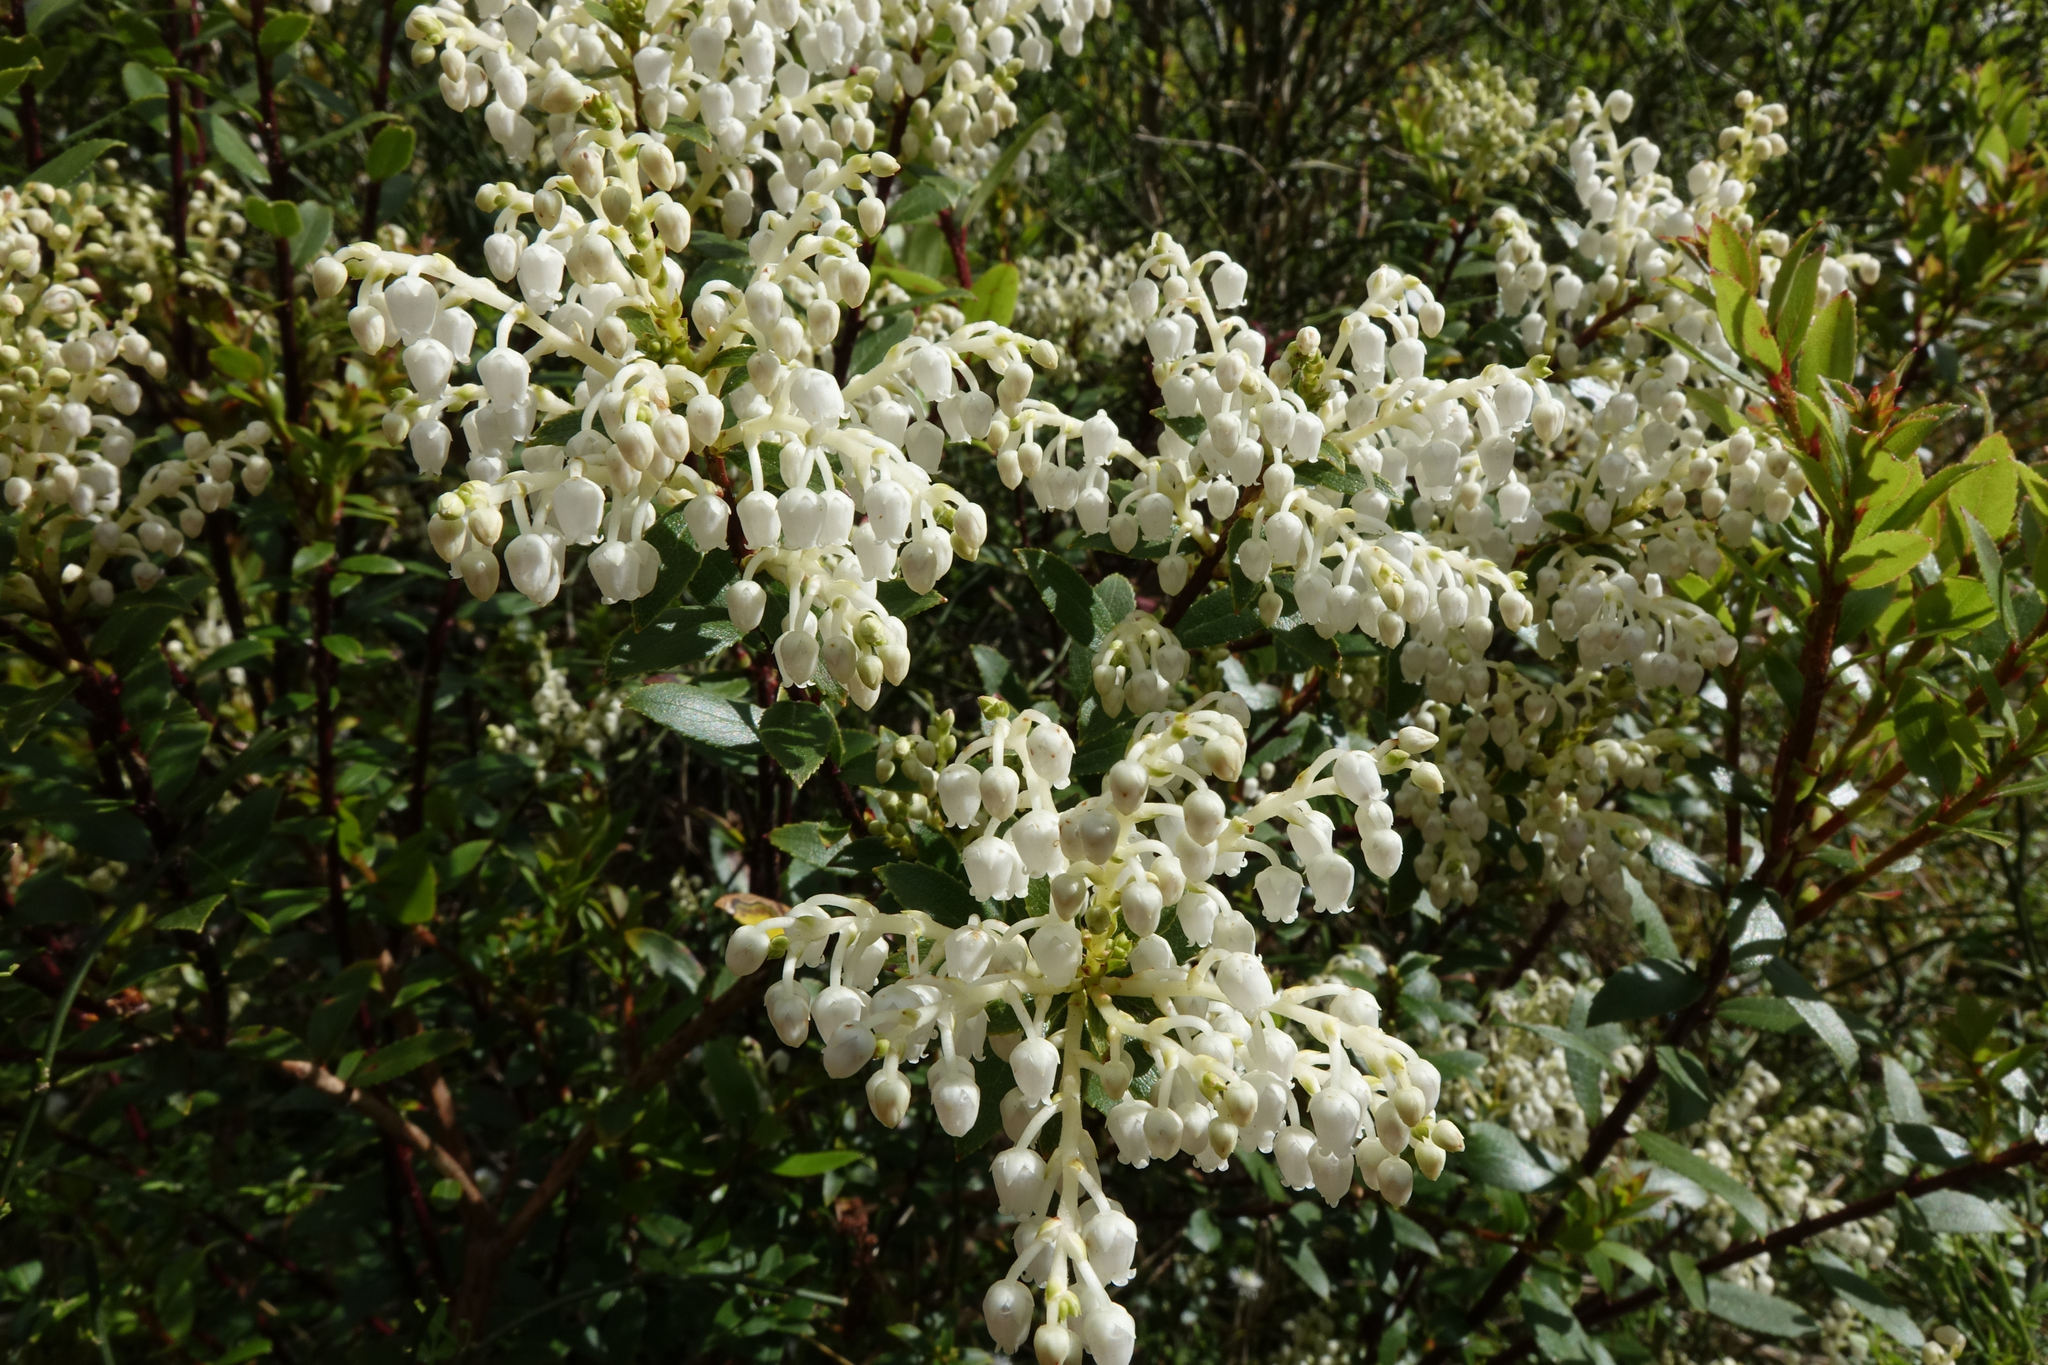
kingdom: Plantae
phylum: Tracheophyta
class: Magnoliopsida
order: Ericales
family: Ericaceae
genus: Gaultheria
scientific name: Gaultheria rupestris
